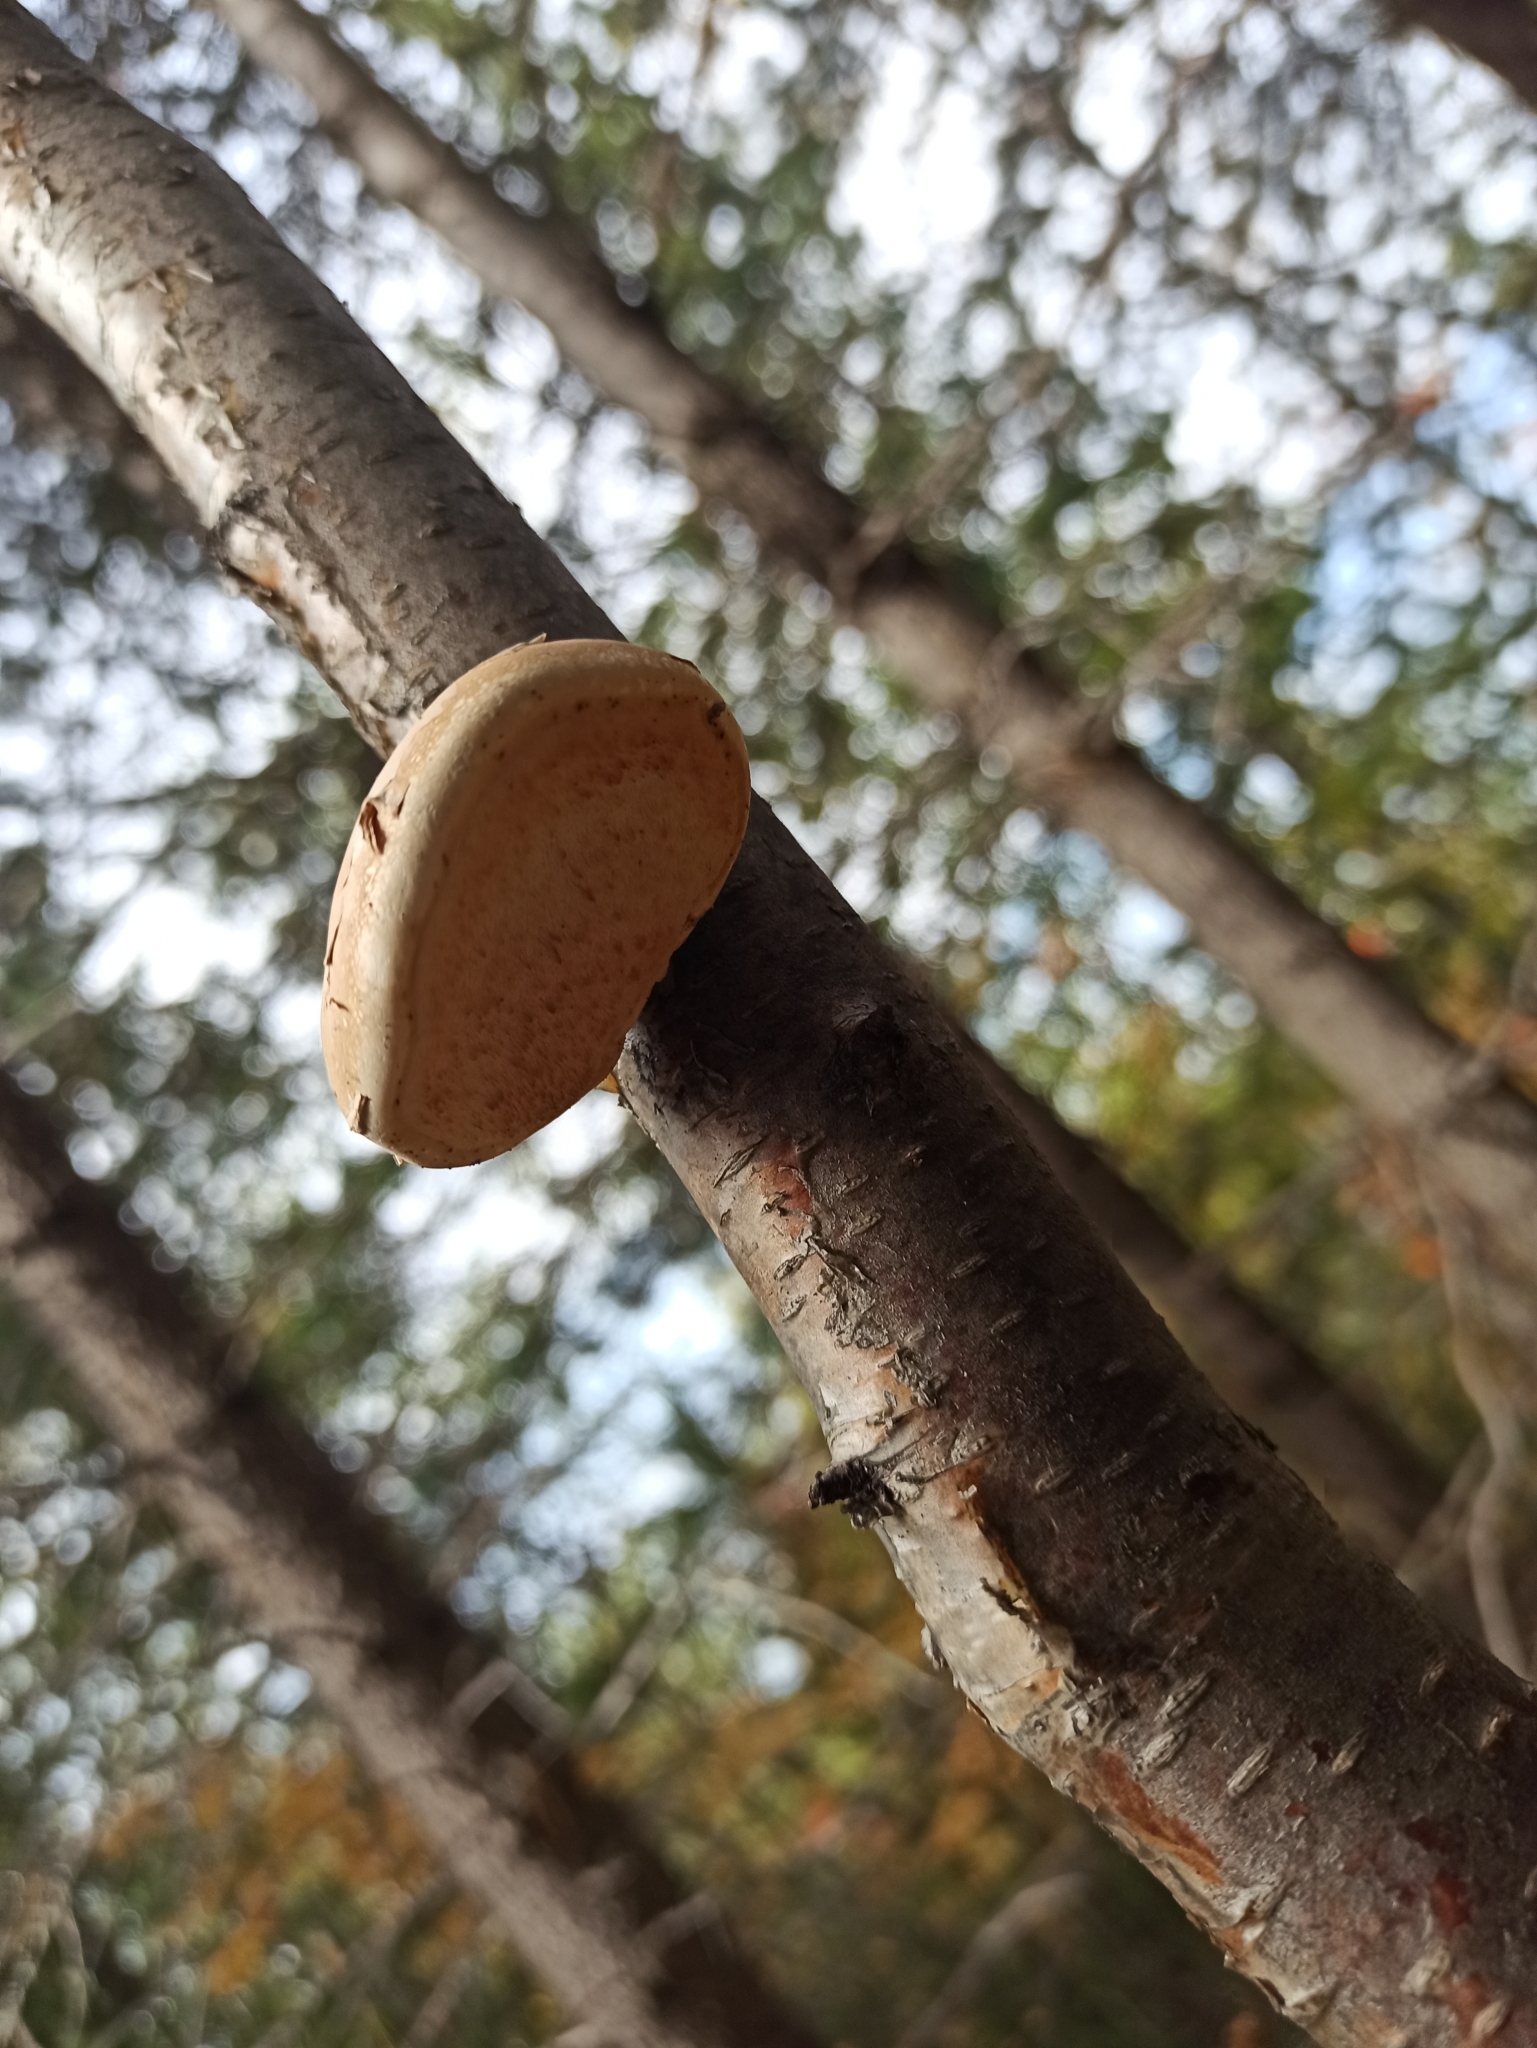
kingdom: Fungi
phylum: Basidiomycota
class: Agaricomycetes
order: Polyporales
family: Fomitopsidaceae
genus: Fomitopsis
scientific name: Fomitopsis betulina
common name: Birch polypore
